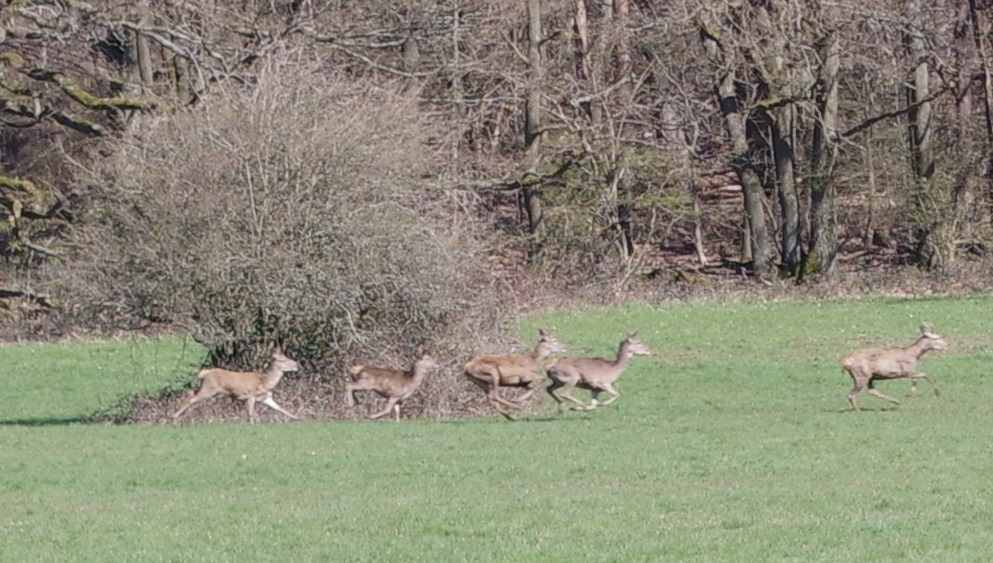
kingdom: Animalia
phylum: Chordata
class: Mammalia
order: Artiodactyla
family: Cervidae
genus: Capreolus
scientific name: Capreolus capreolus
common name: Western roe deer
